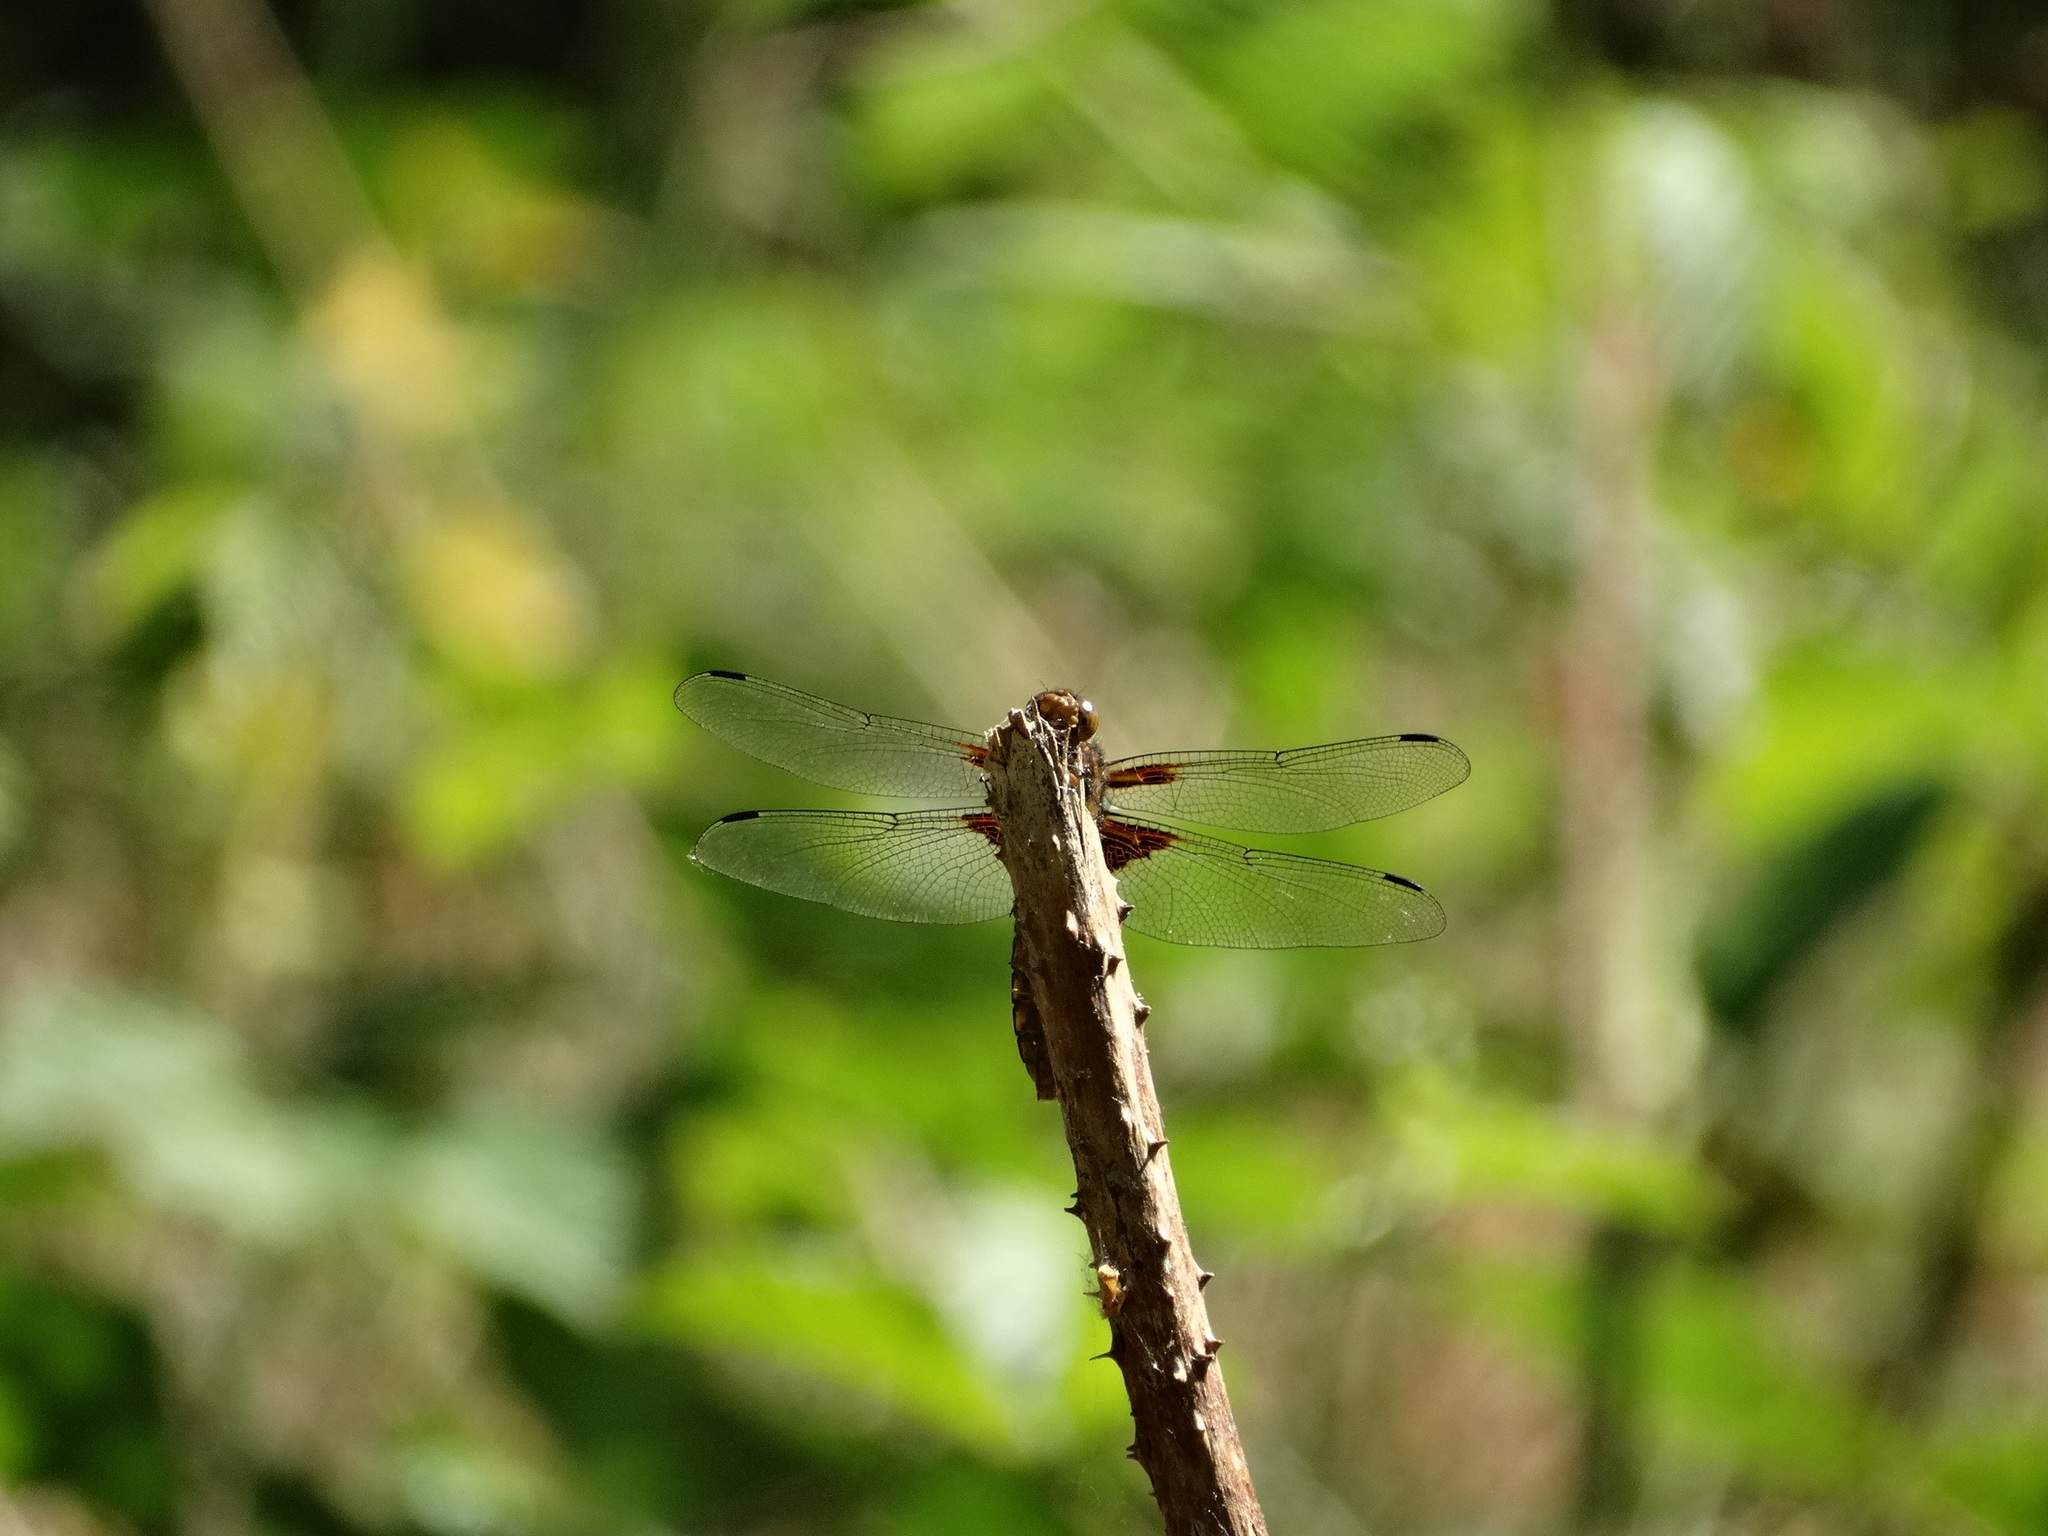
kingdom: Animalia
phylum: Arthropoda
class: Insecta
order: Odonata
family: Libellulidae
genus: Libellula
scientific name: Libellula depressa
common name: Broad-bodied chaser
